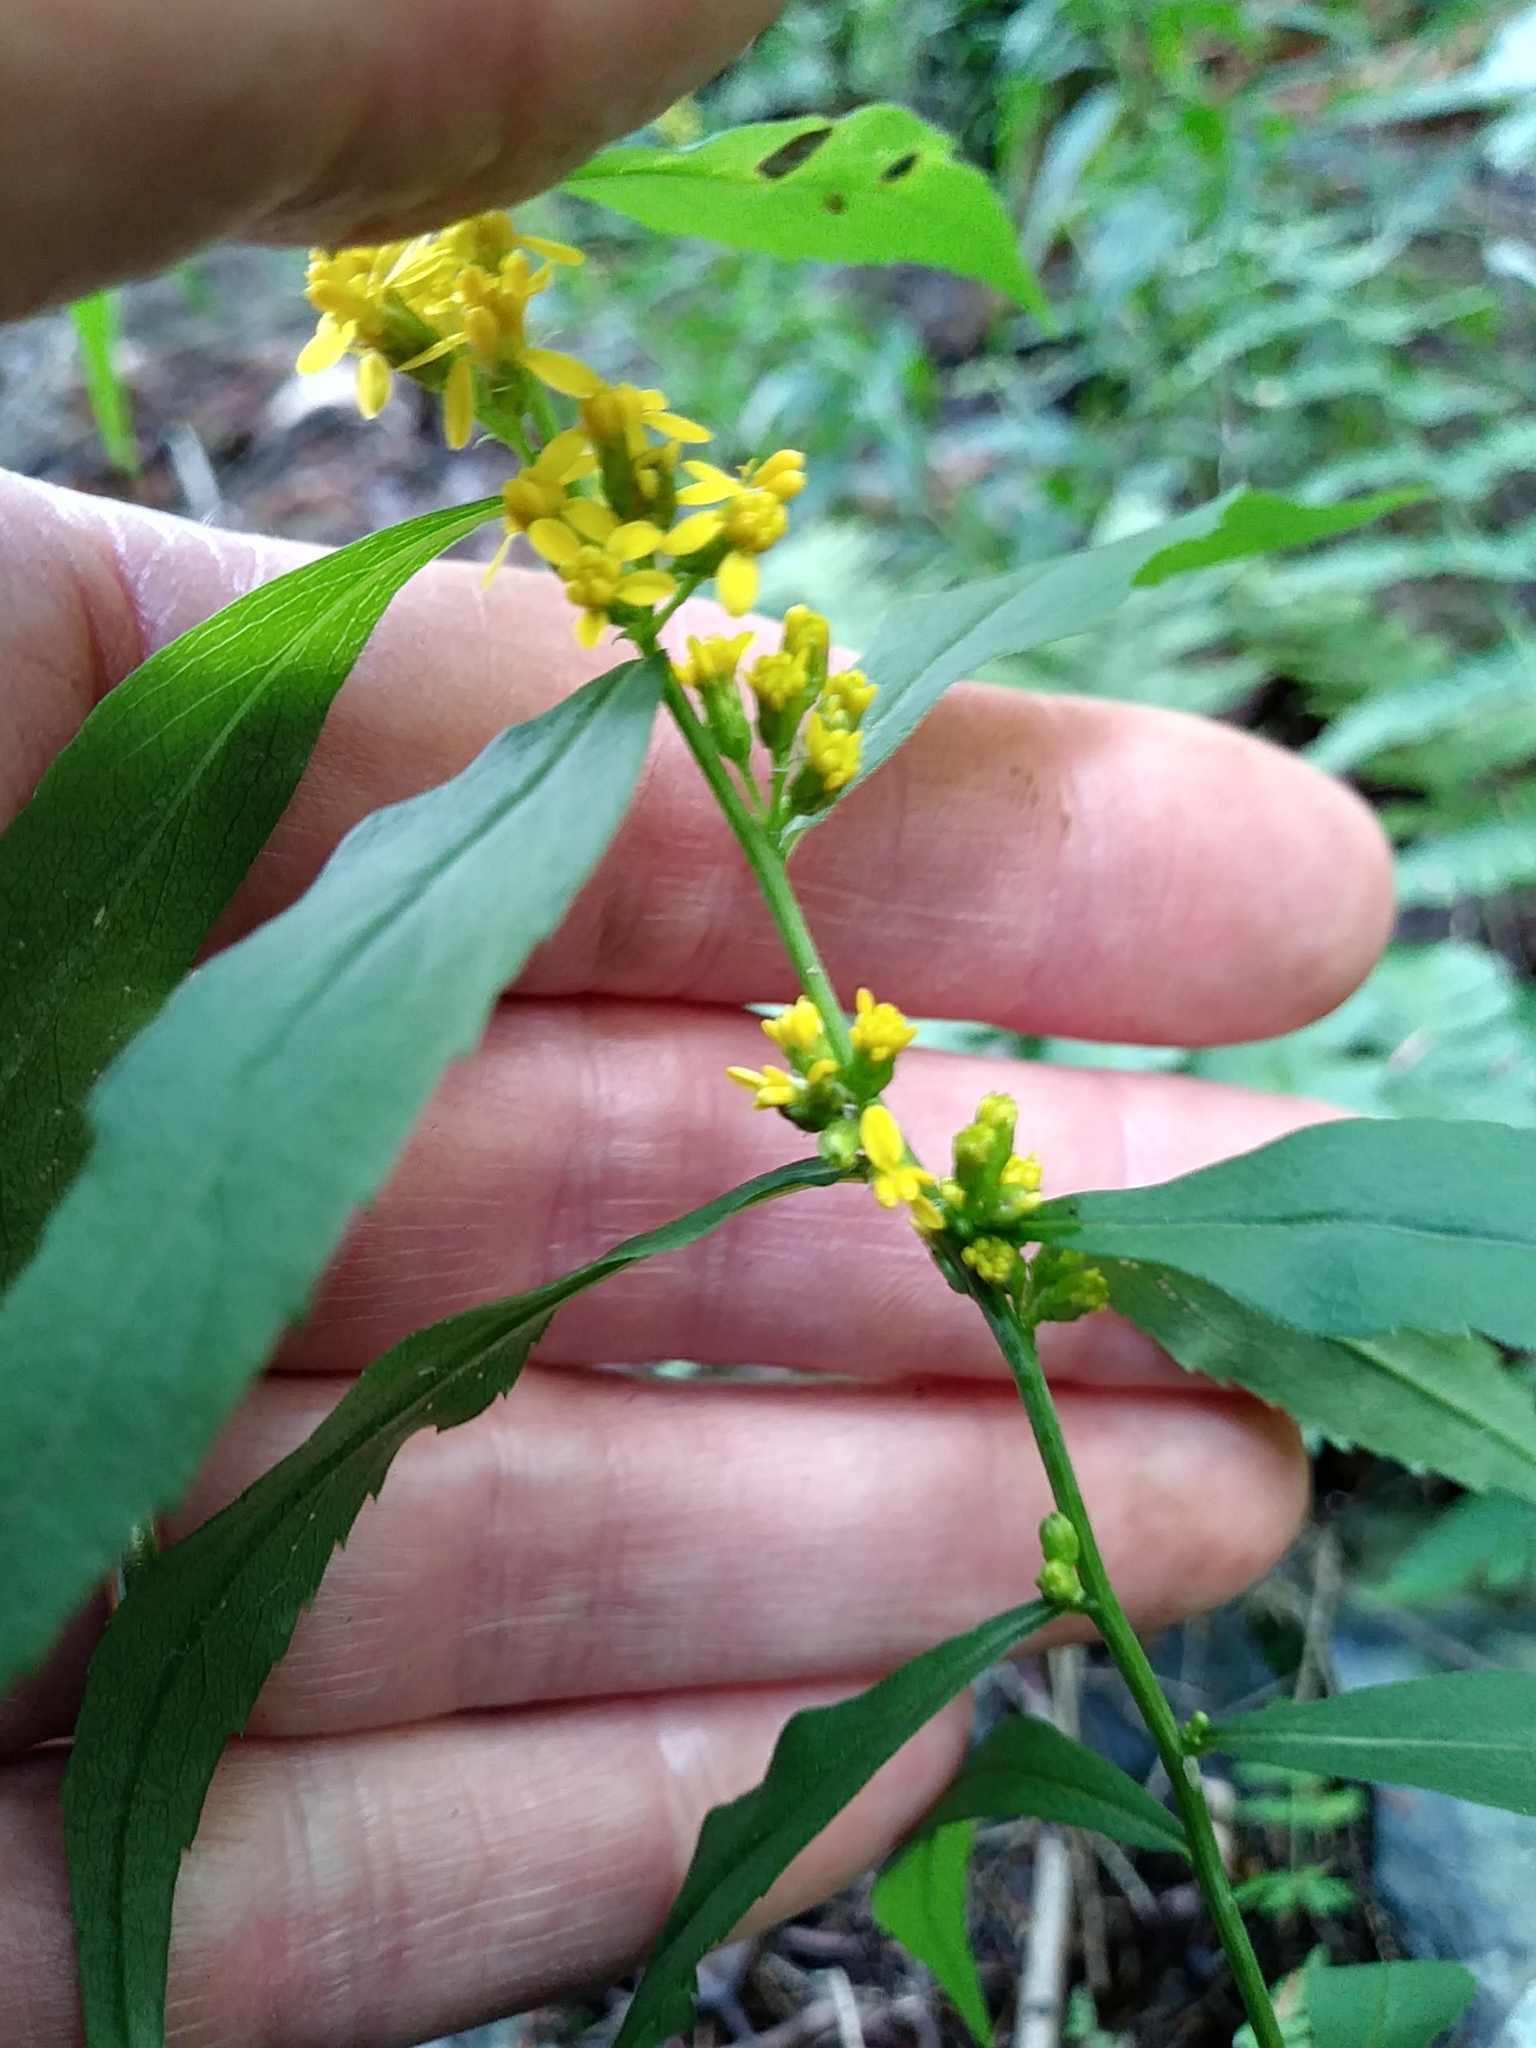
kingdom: Plantae
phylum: Tracheophyta
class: Magnoliopsida
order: Asterales
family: Asteraceae
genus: Solidago
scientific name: Solidago caesia
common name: Woodland goldenrod
